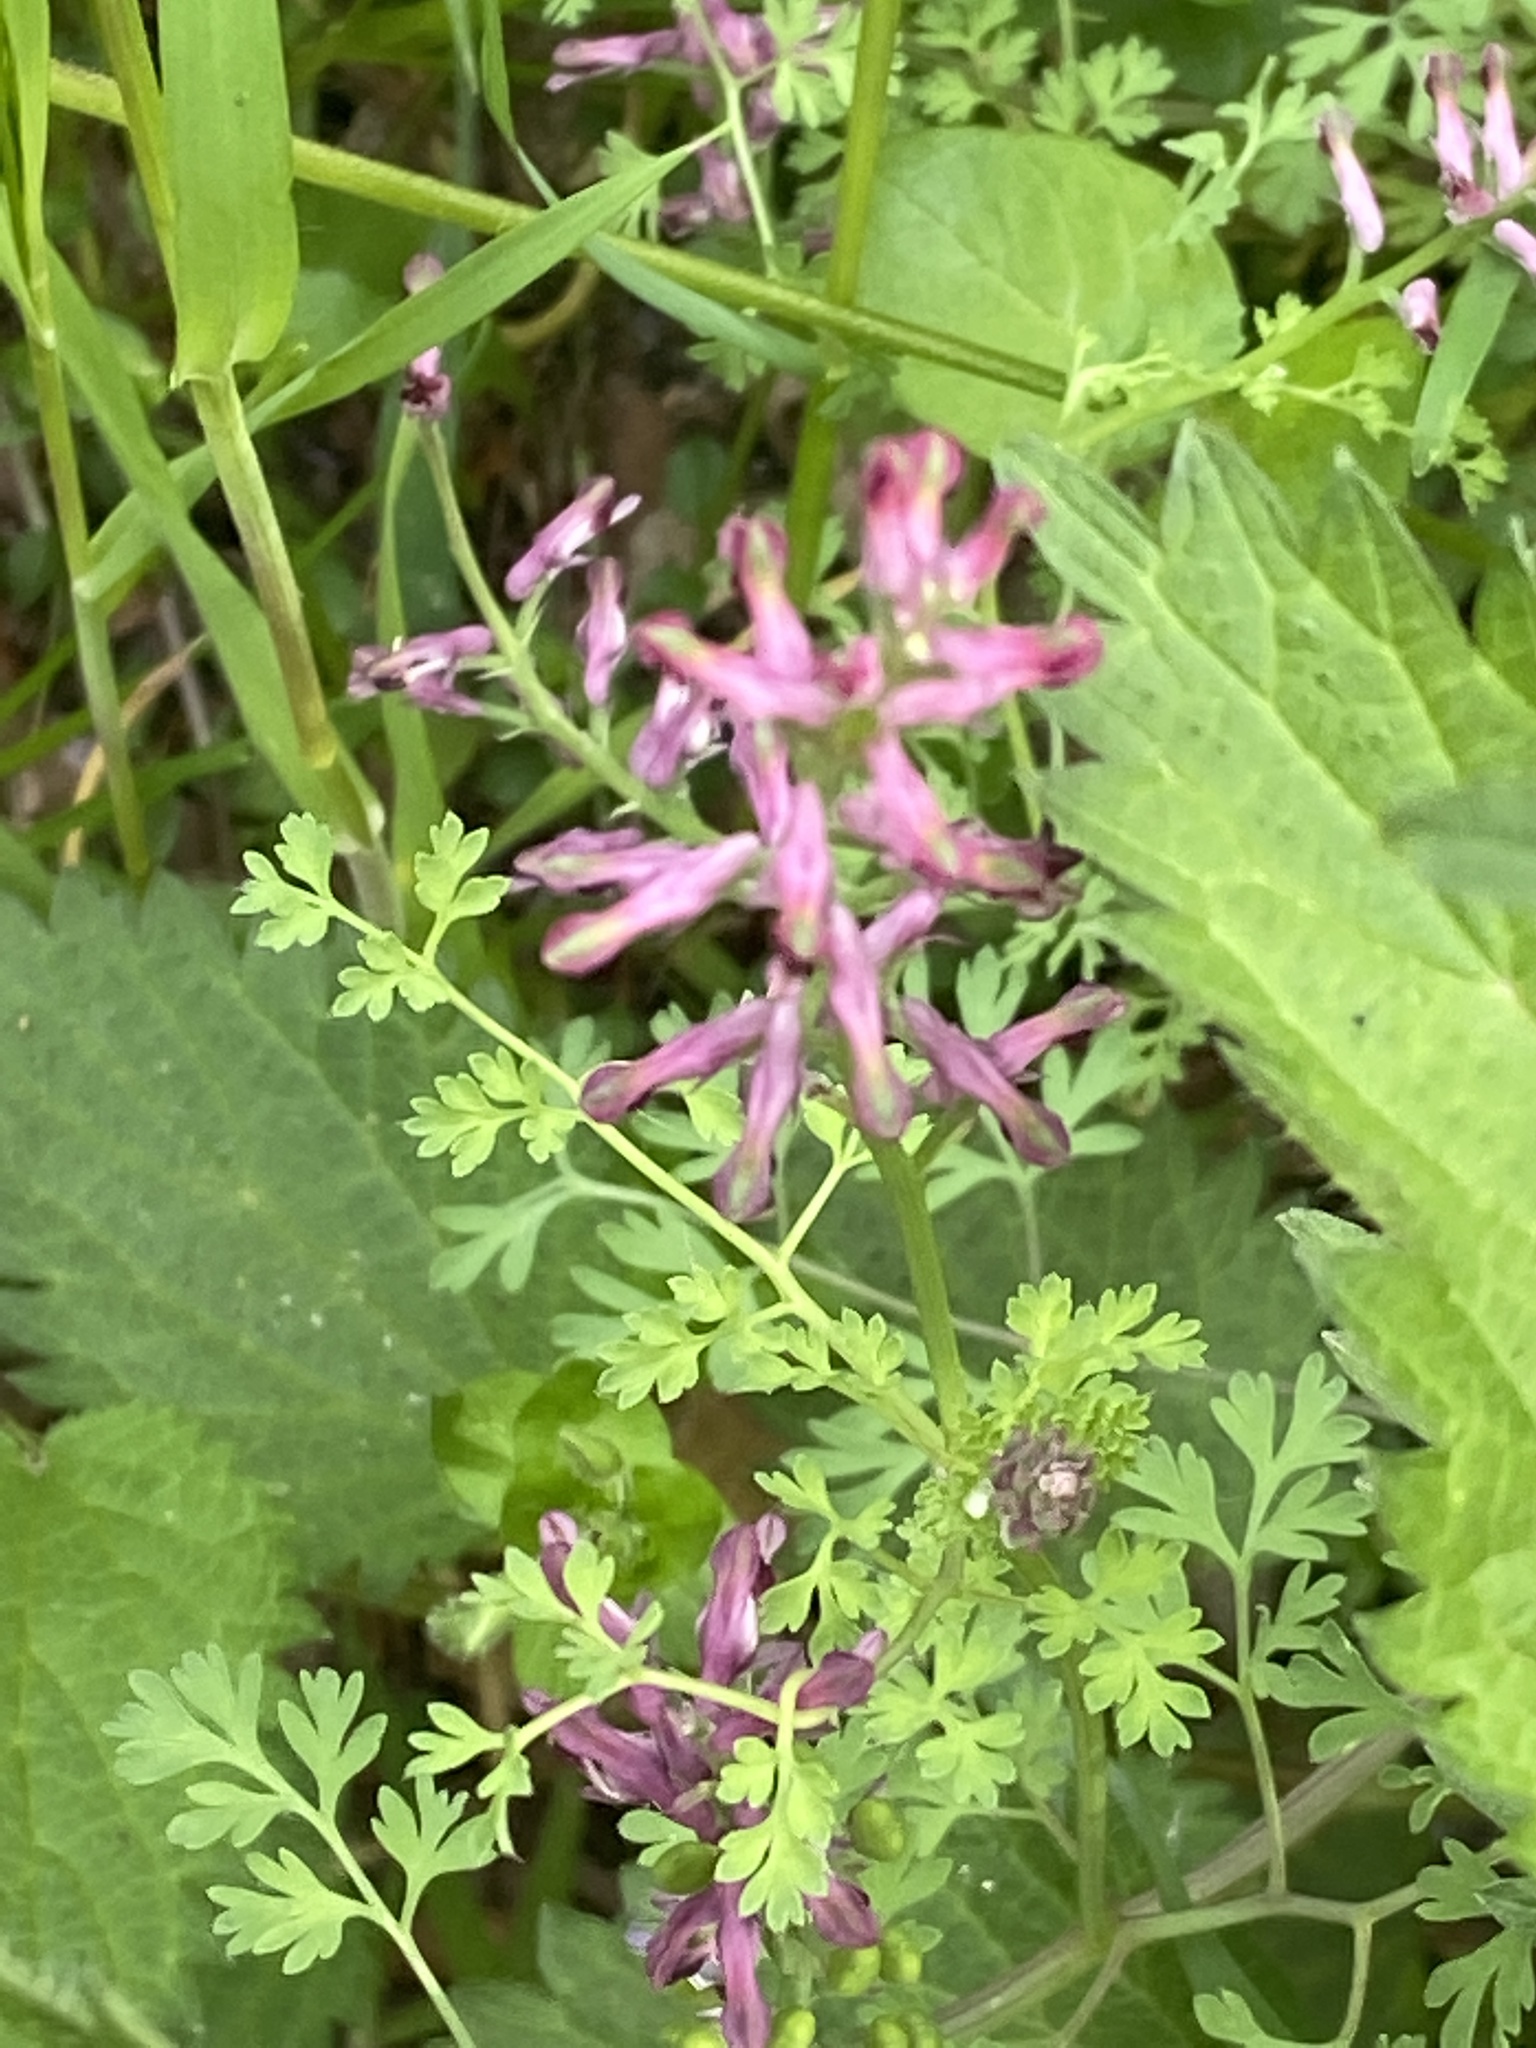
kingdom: Plantae
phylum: Tracheophyta
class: Magnoliopsida
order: Ranunculales
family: Papaveraceae
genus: Fumaria
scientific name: Fumaria officinalis
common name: Common fumitory
